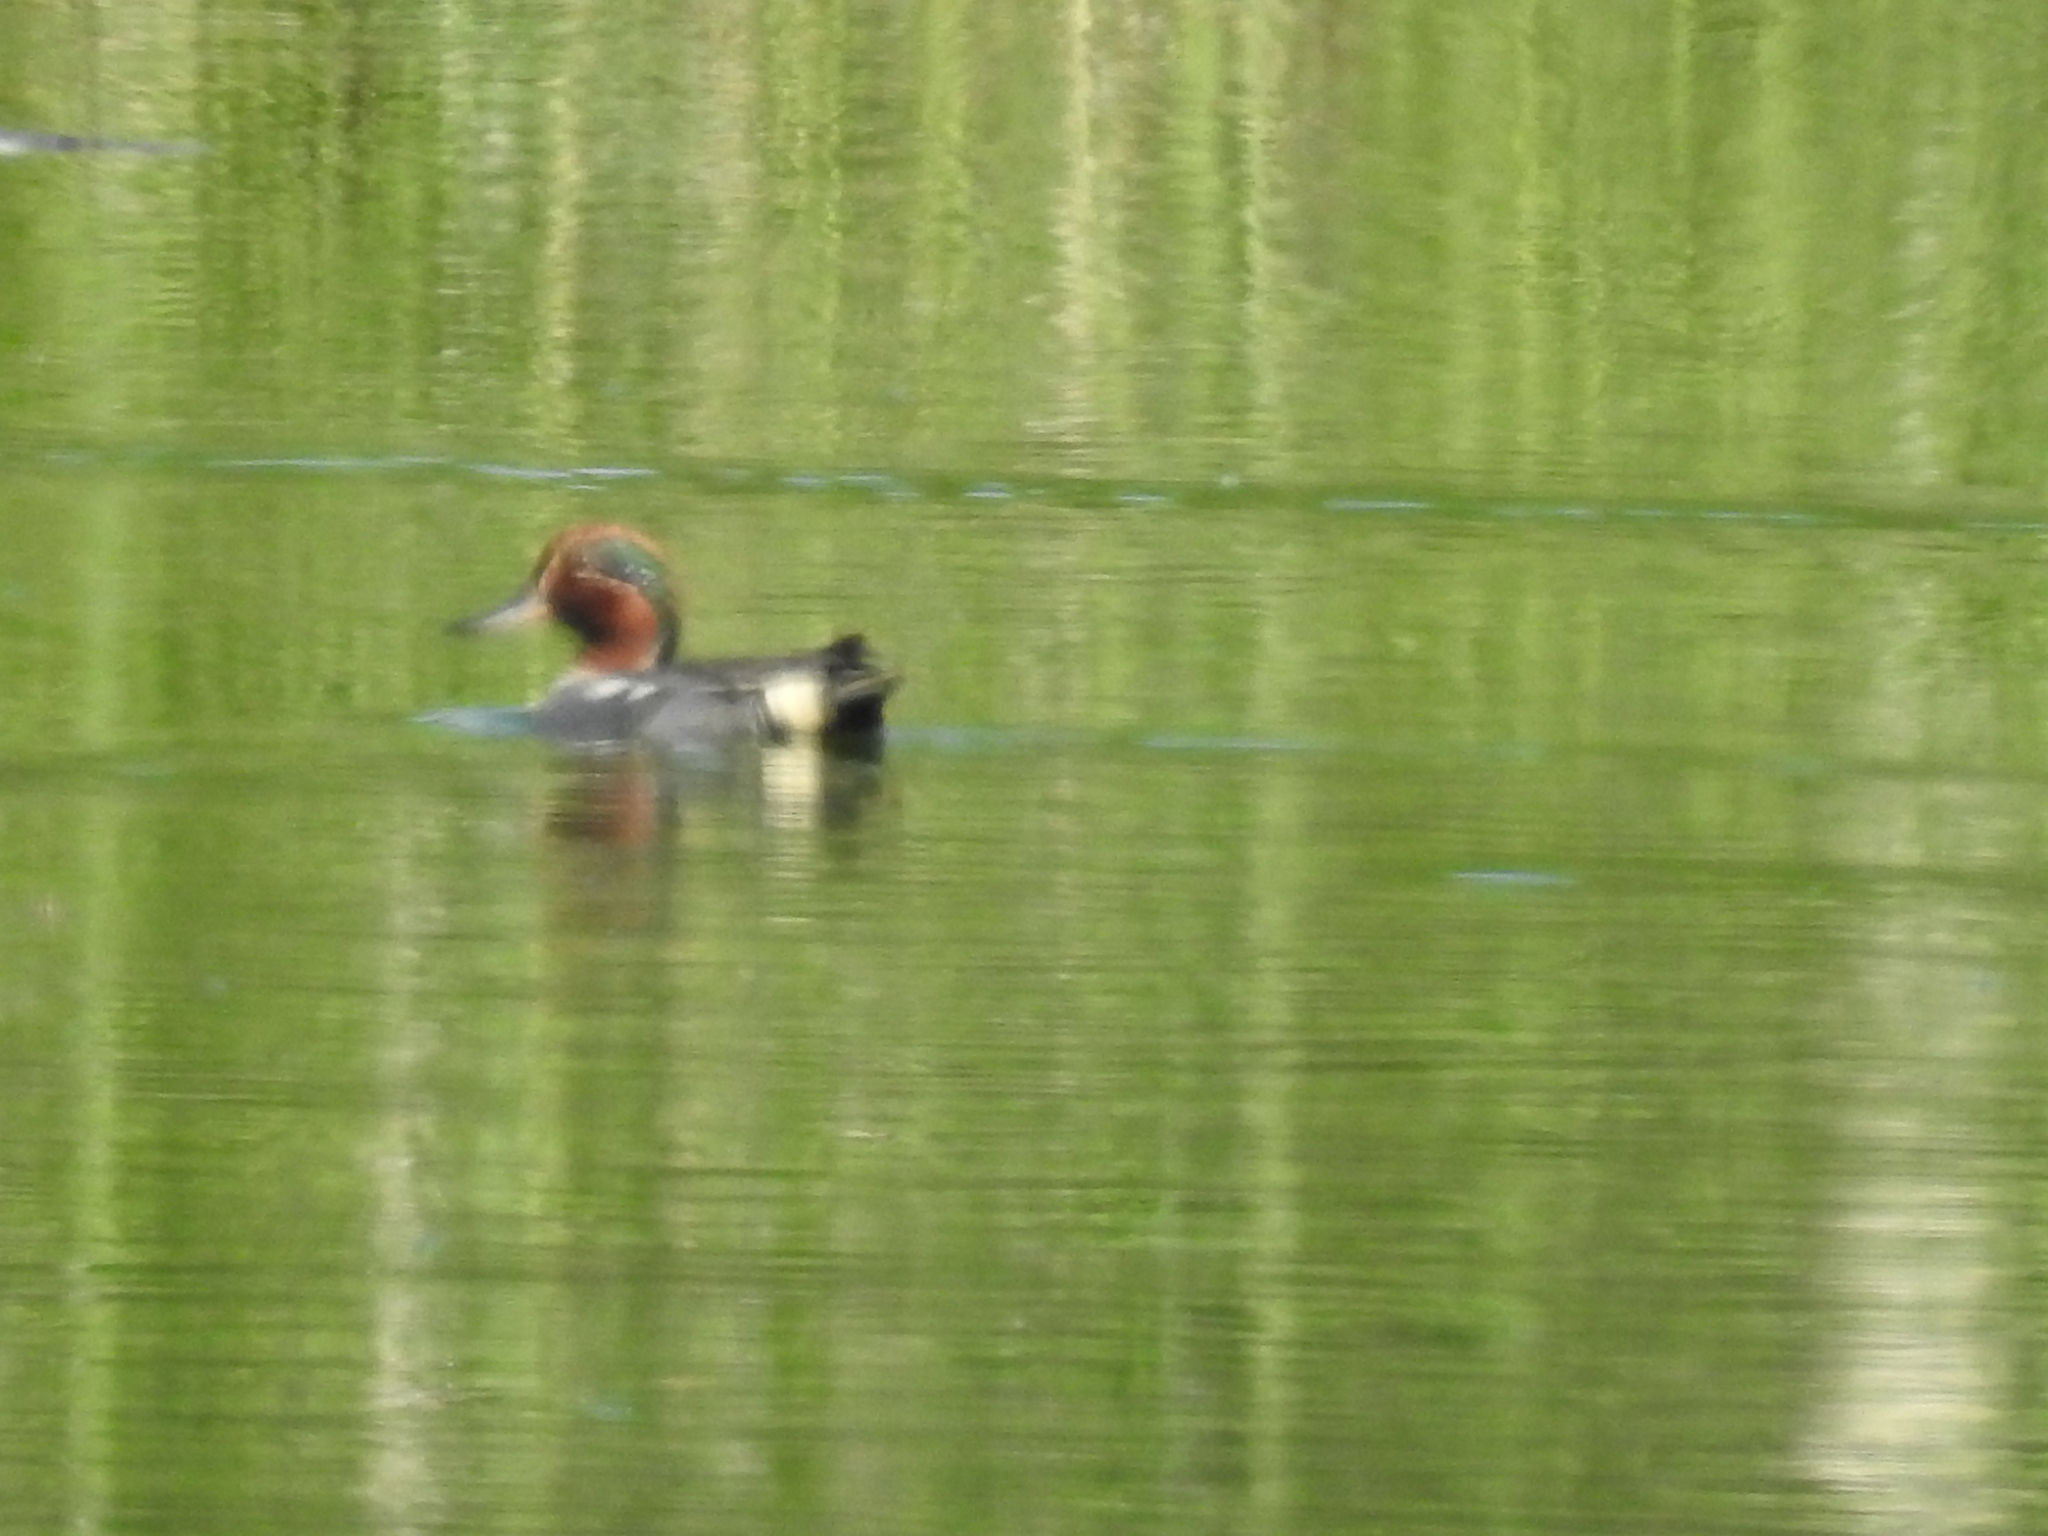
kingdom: Animalia
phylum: Chordata
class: Aves
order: Anseriformes
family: Anatidae
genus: Anas
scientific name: Anas crecca
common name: Eurasian teal
